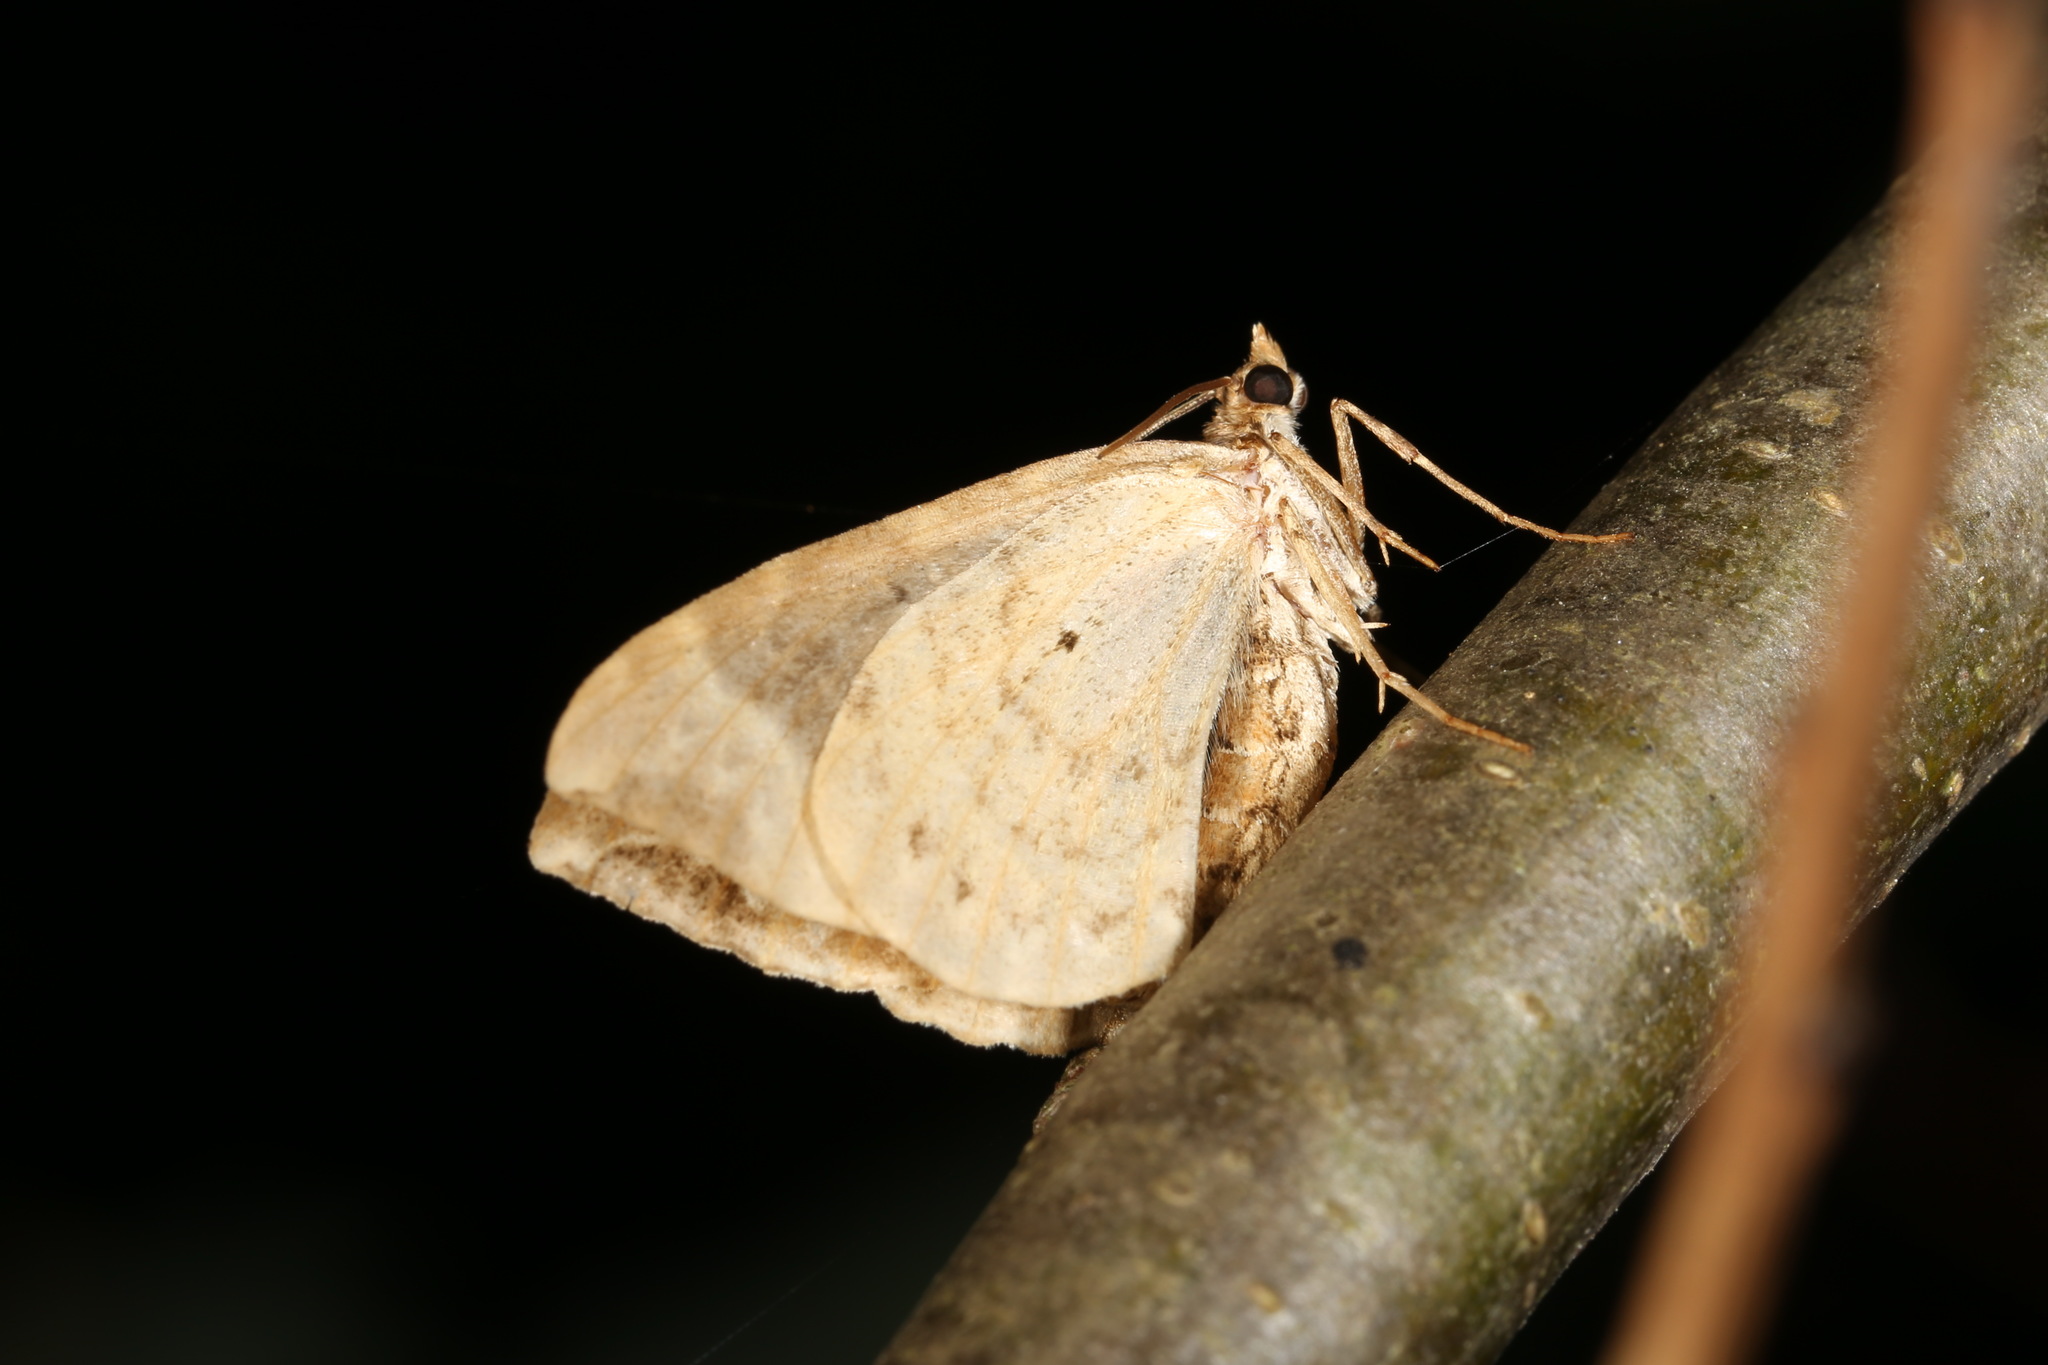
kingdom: Animalia
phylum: Arthropoda
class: Insecta
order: Lepidoptera
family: Geometridae
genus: Ecliptopera
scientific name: Ecliptopera silaceata
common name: Small phoenix
